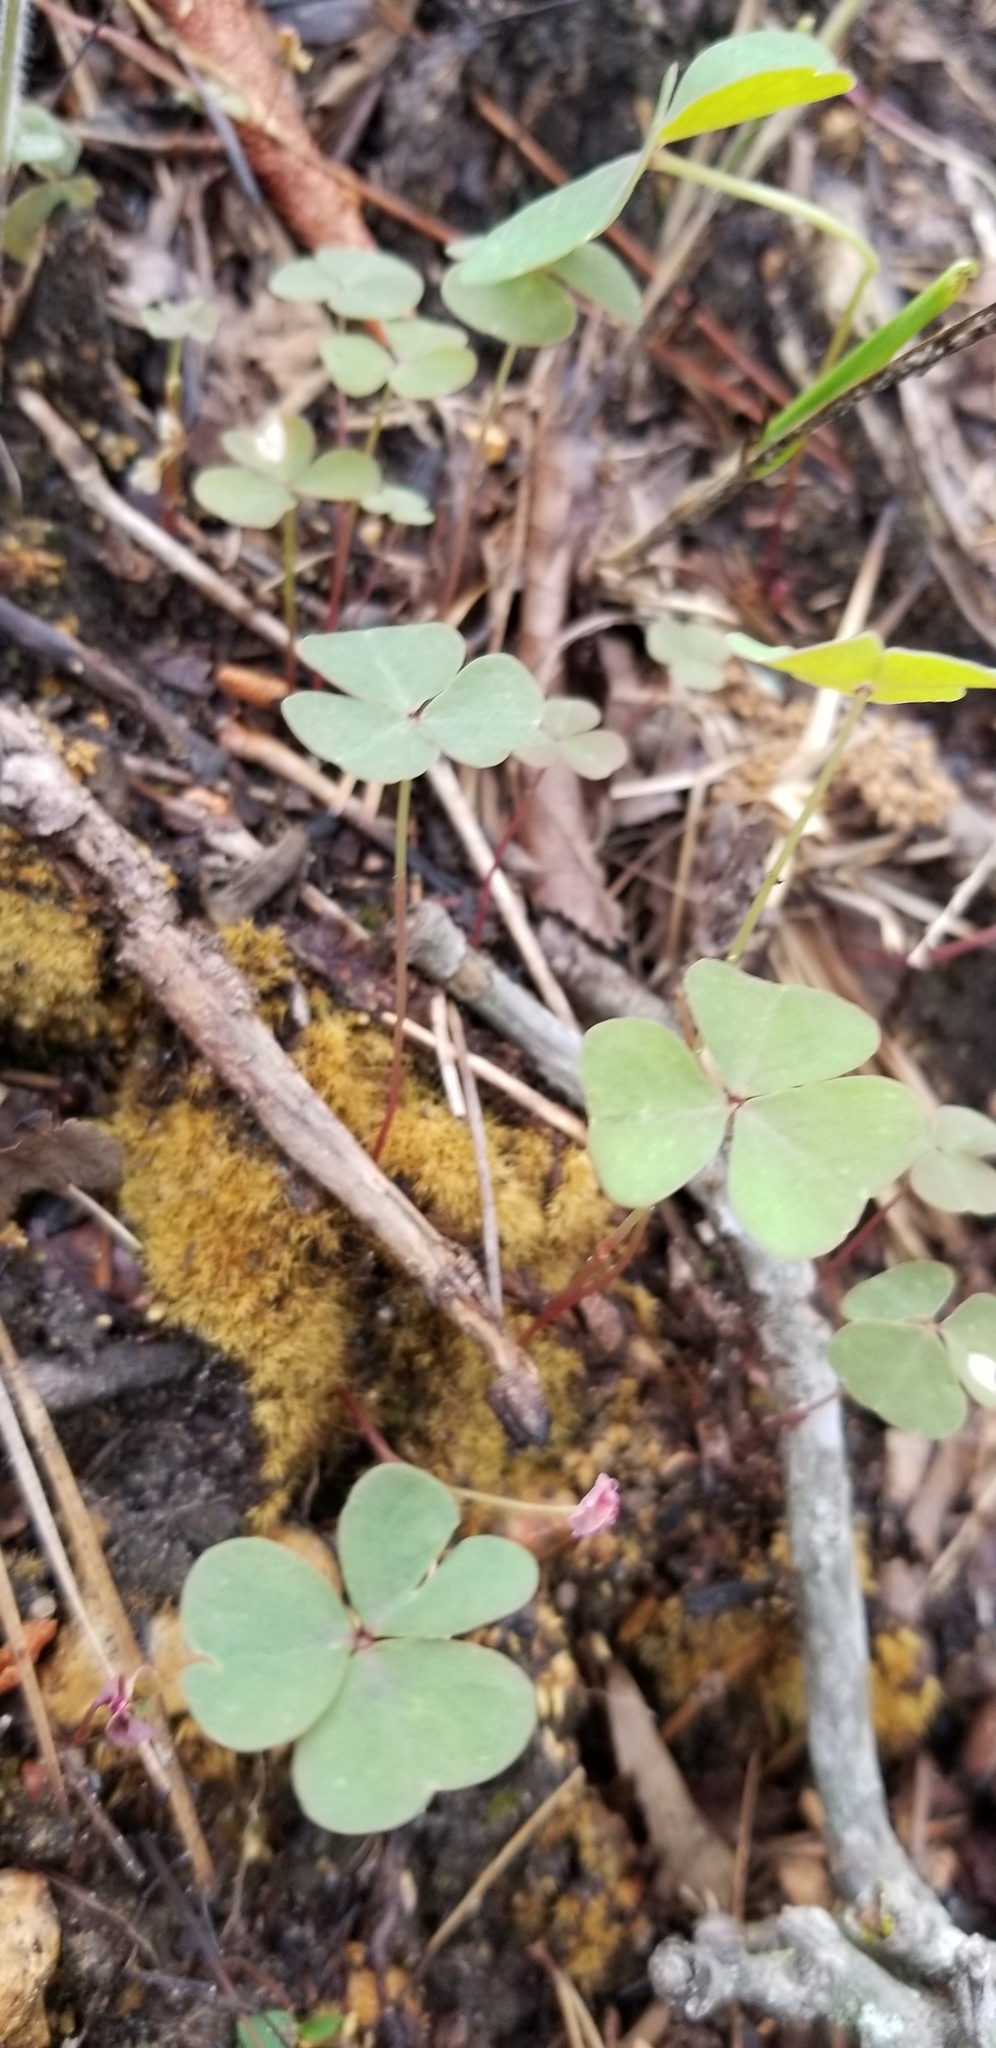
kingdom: Plantae
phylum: Tracheophyta
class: Magnoliopsida
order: Oxalidales
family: Oxalidaceae
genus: Oxalis
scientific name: Oxalis violacea
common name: Violet wood-sorrel
